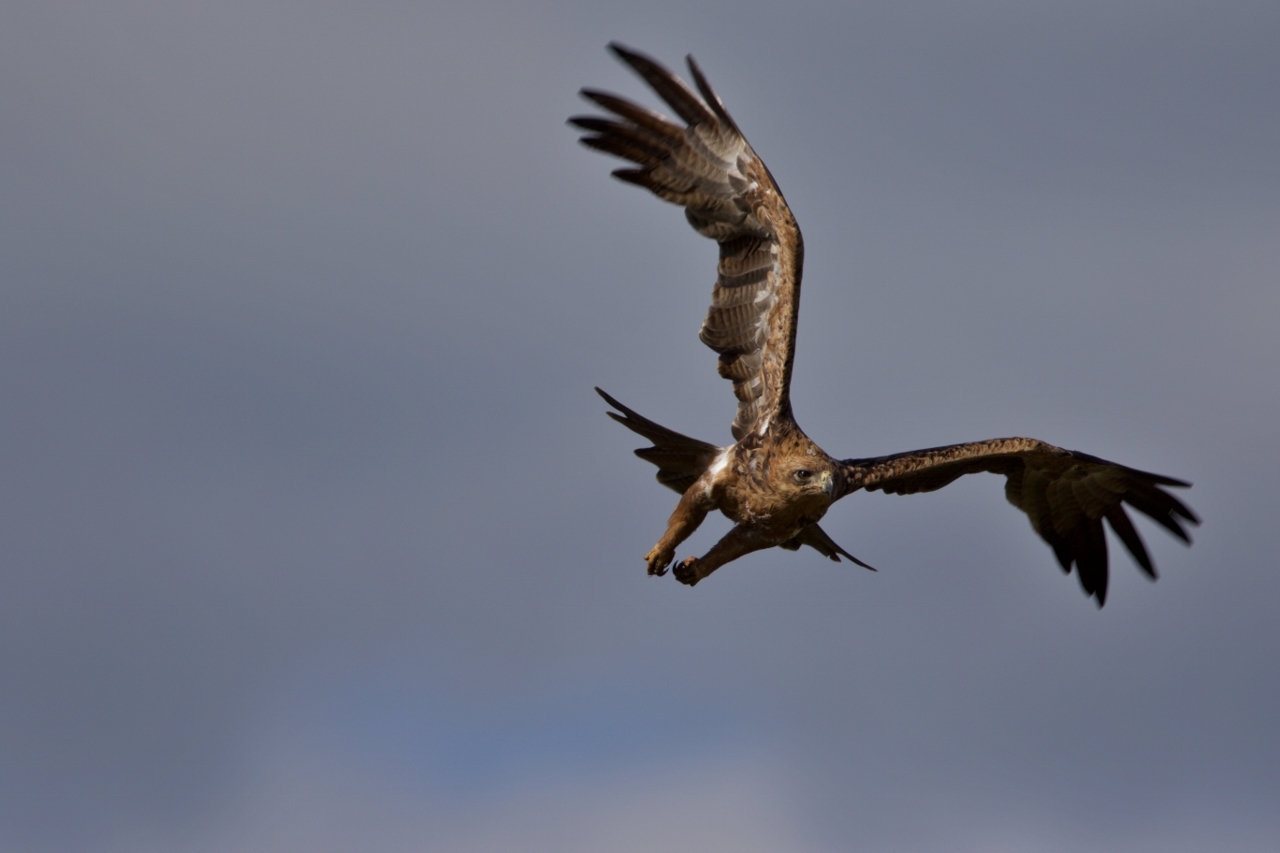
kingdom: Animalia
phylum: Chordata
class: Aves
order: Accipitriformes
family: Accipitridae
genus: Aquila
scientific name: Aquila rapax
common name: Tawny eagle
